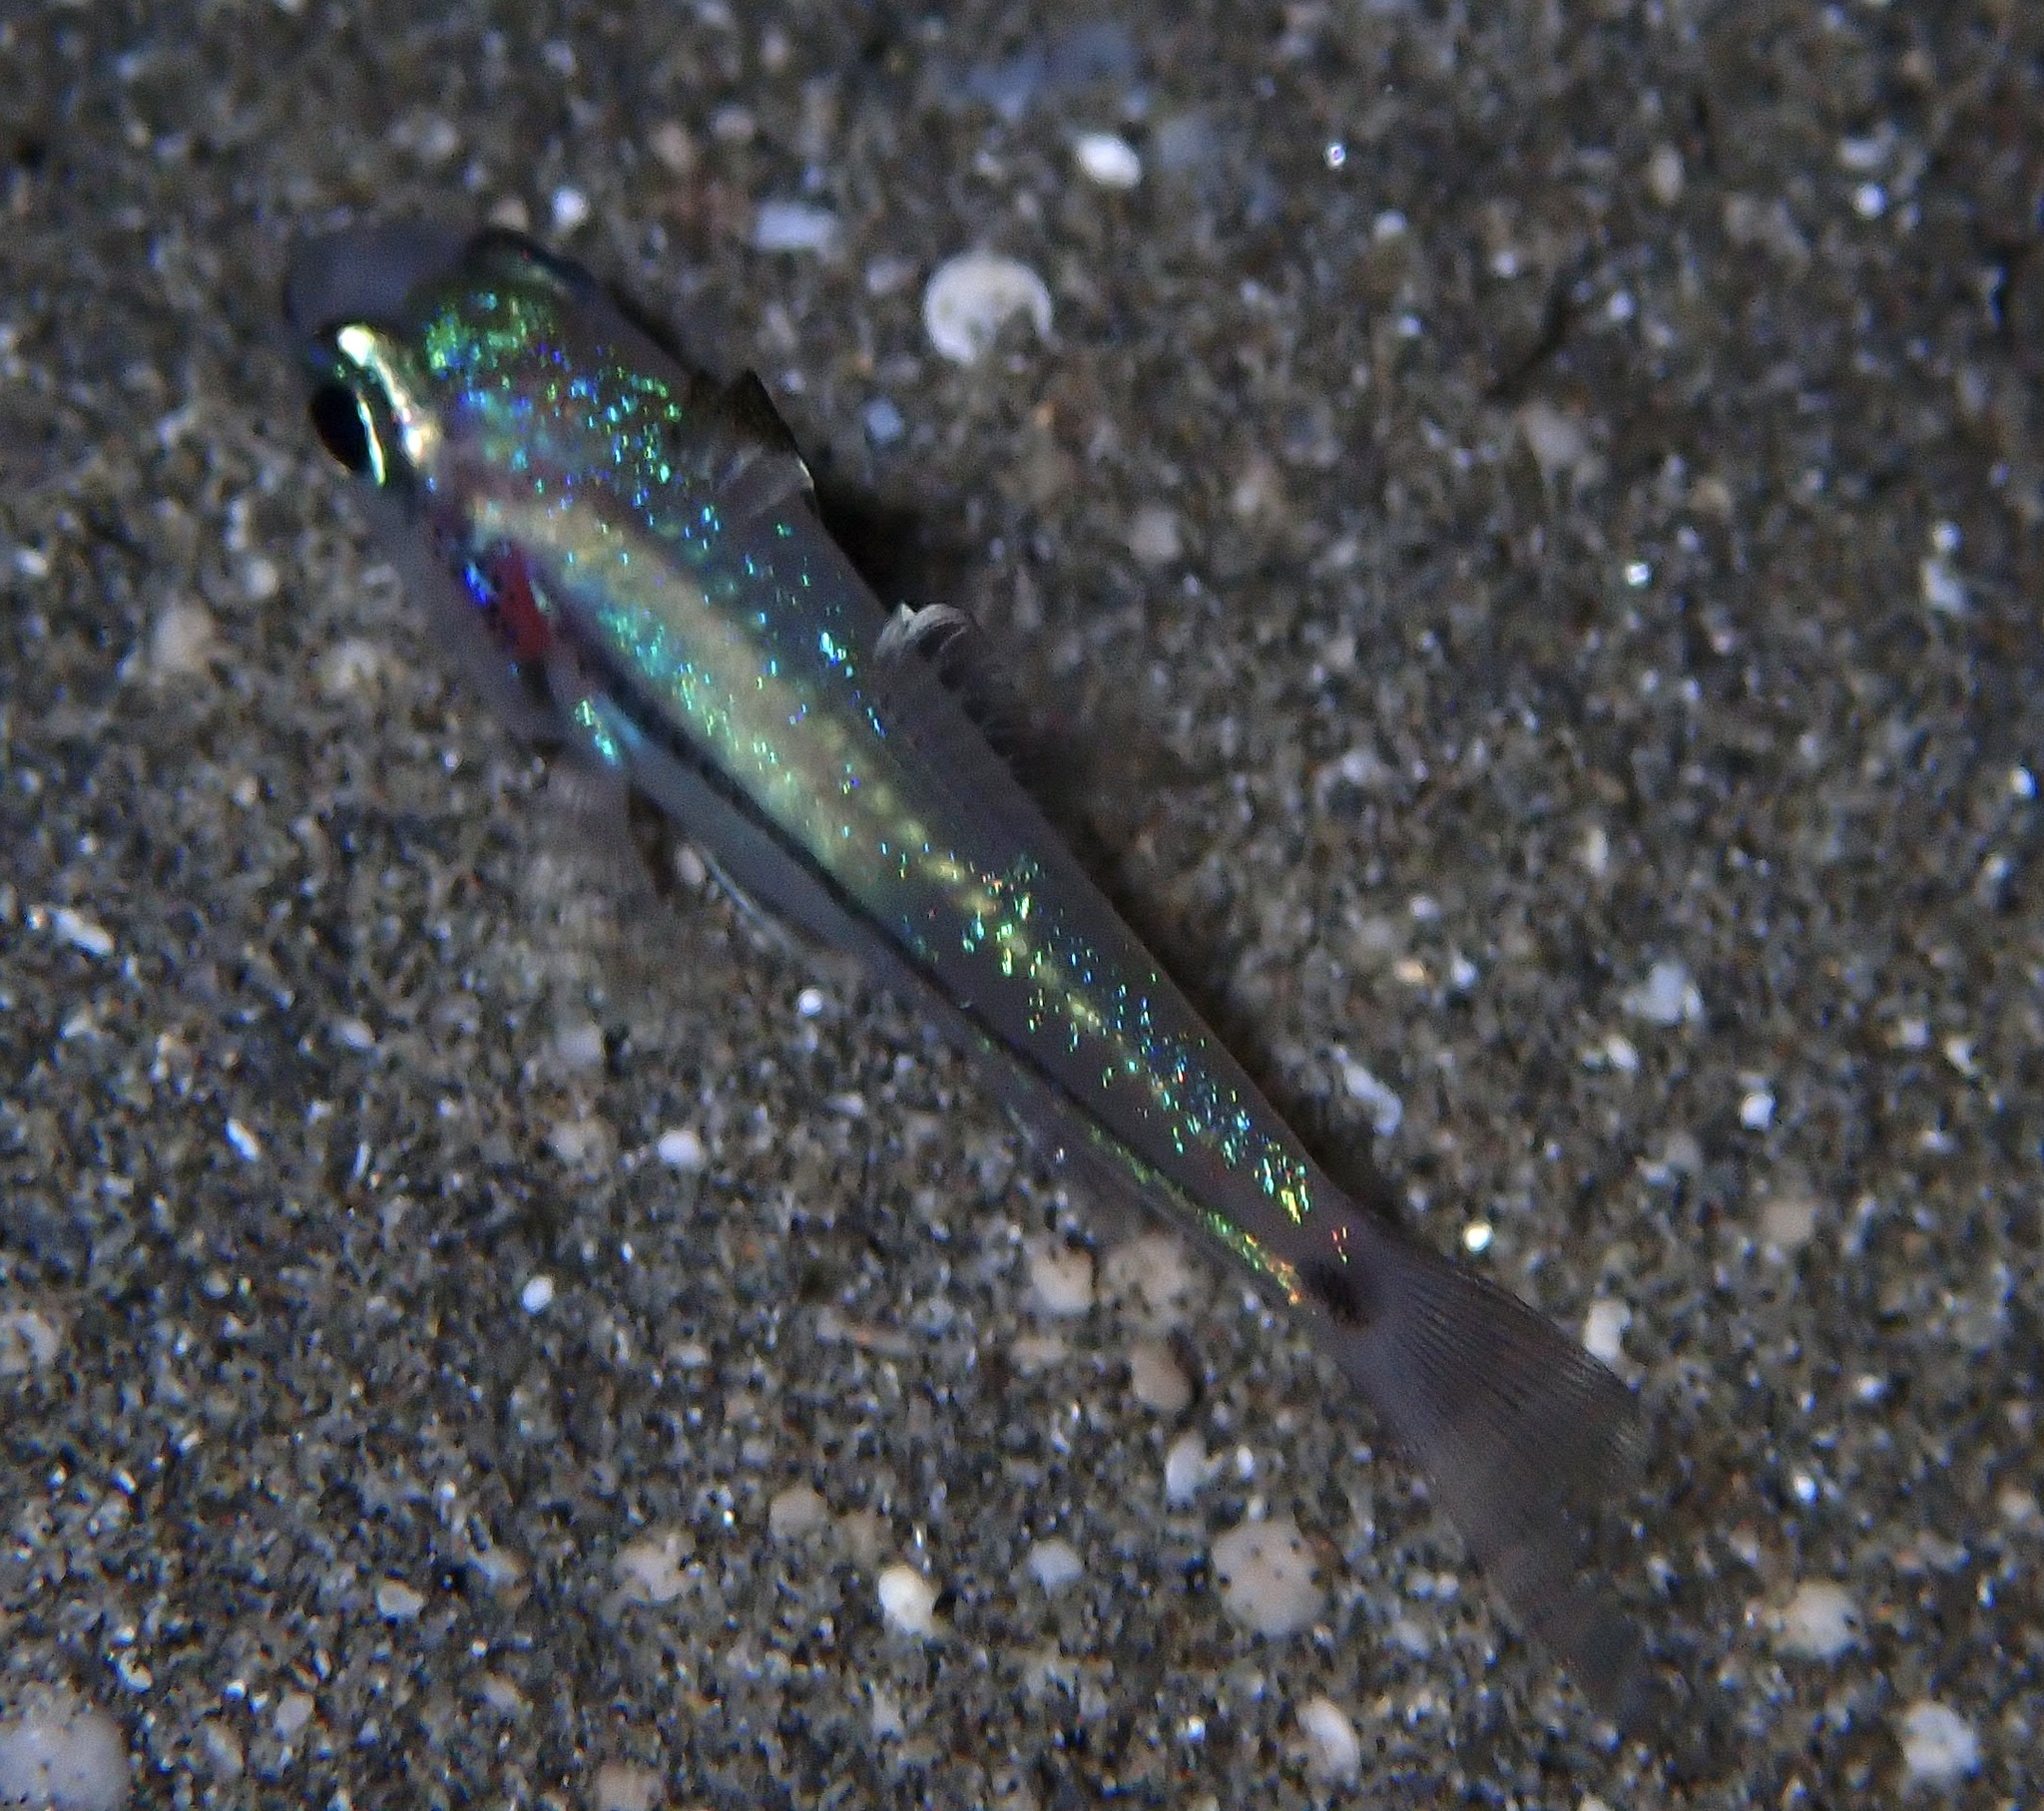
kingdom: Animalia
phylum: Chordata
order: Perciformes
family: Apogonidae
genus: Pristiapogon
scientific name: Pristiapogon exostigma
